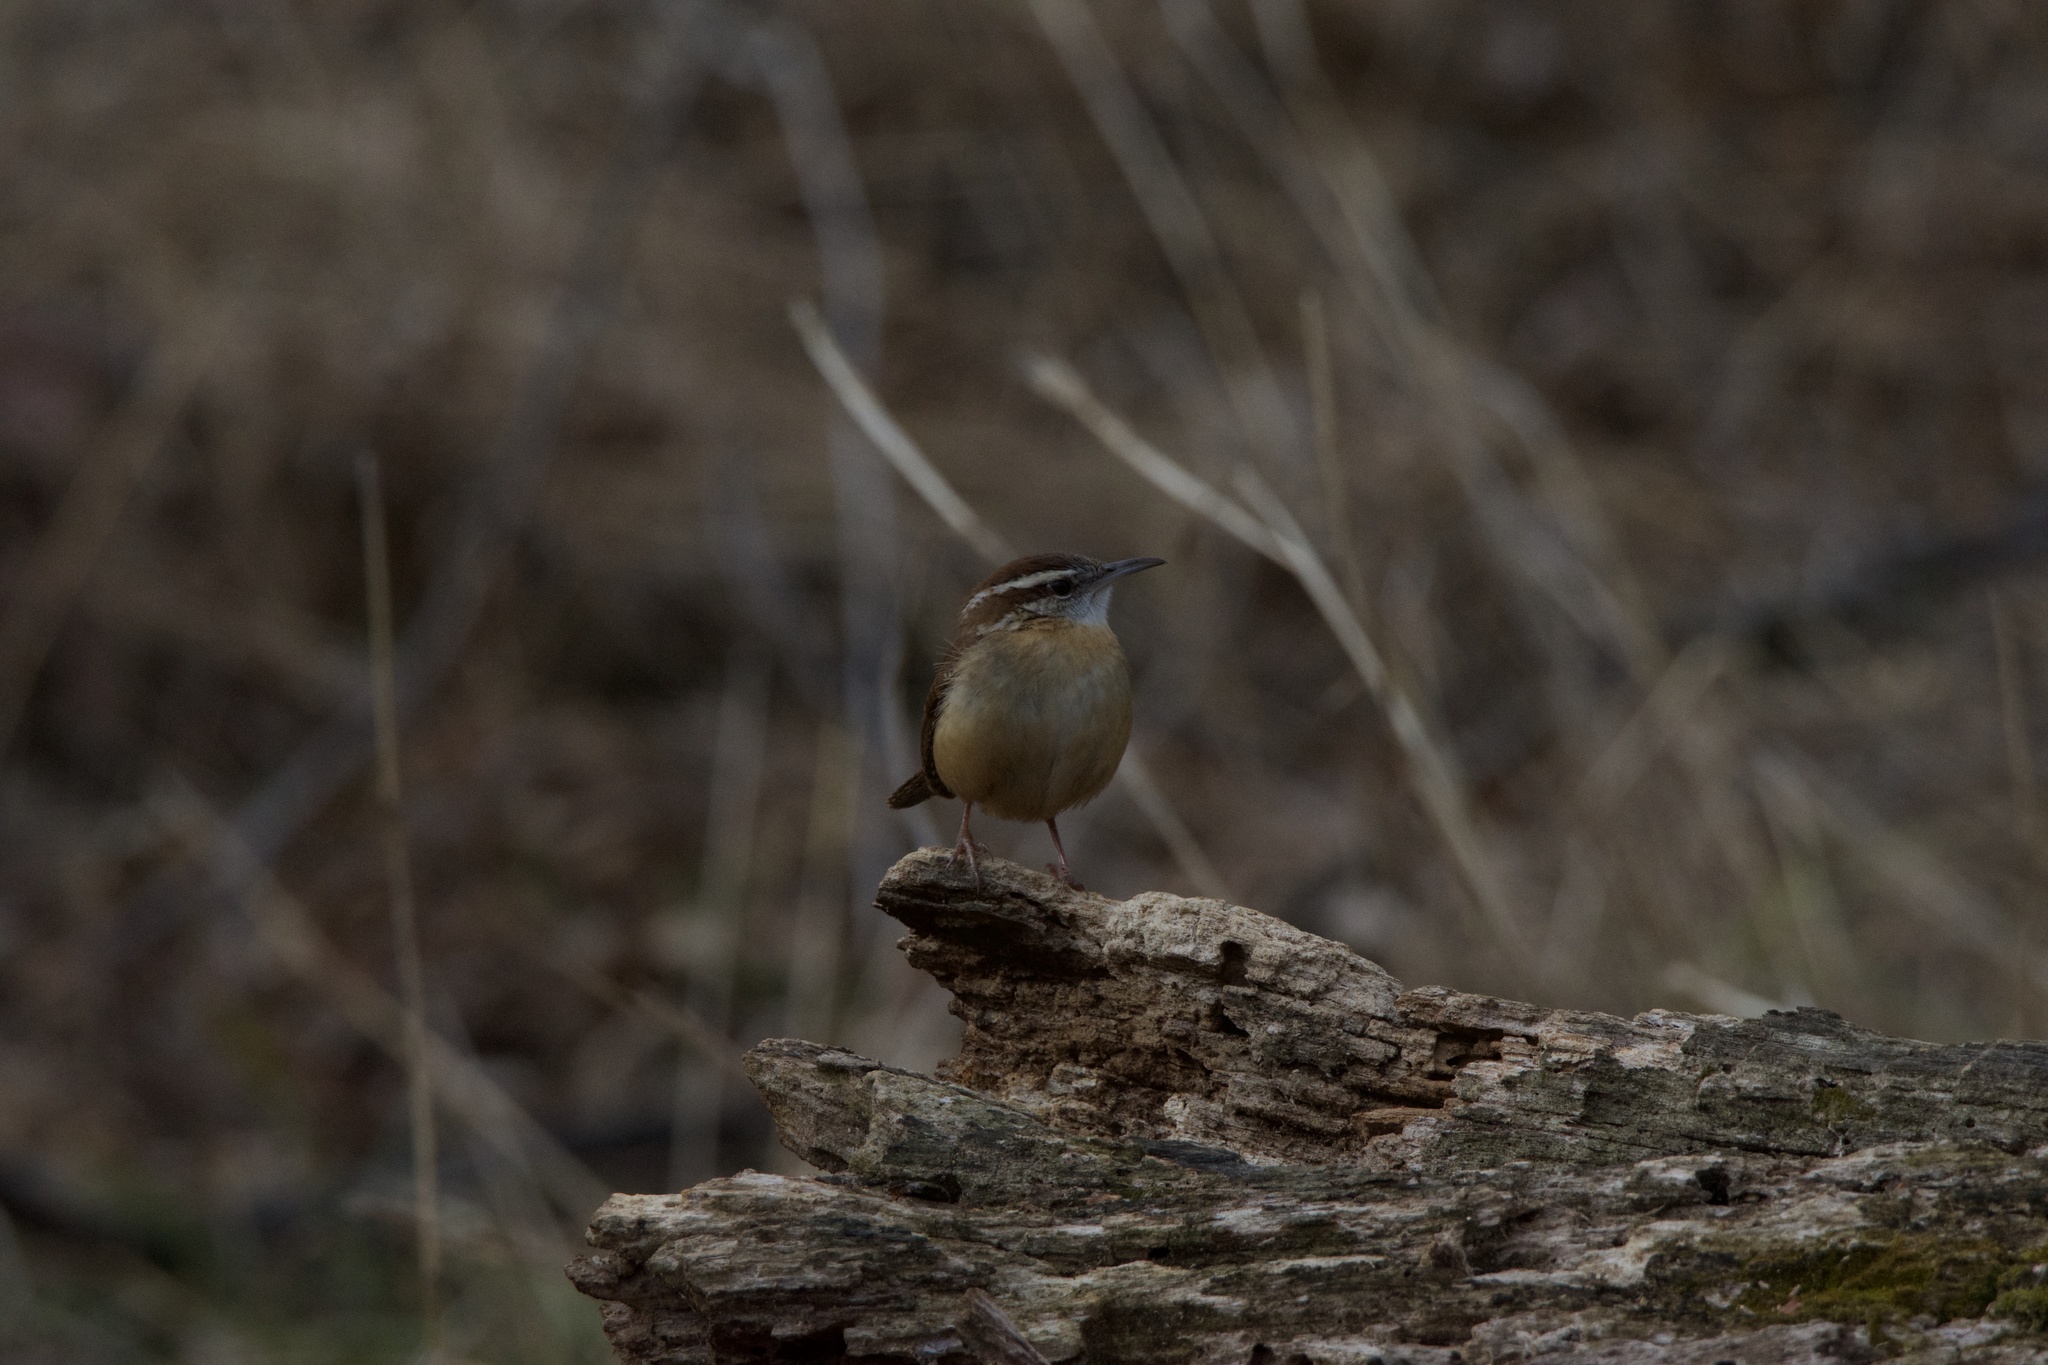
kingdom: Animalia
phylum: Chordata
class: Aves
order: Passeriformes
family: Troglodytidae
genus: Thryothorus
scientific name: Thryothorus ludovicianus
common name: Carolina wren
